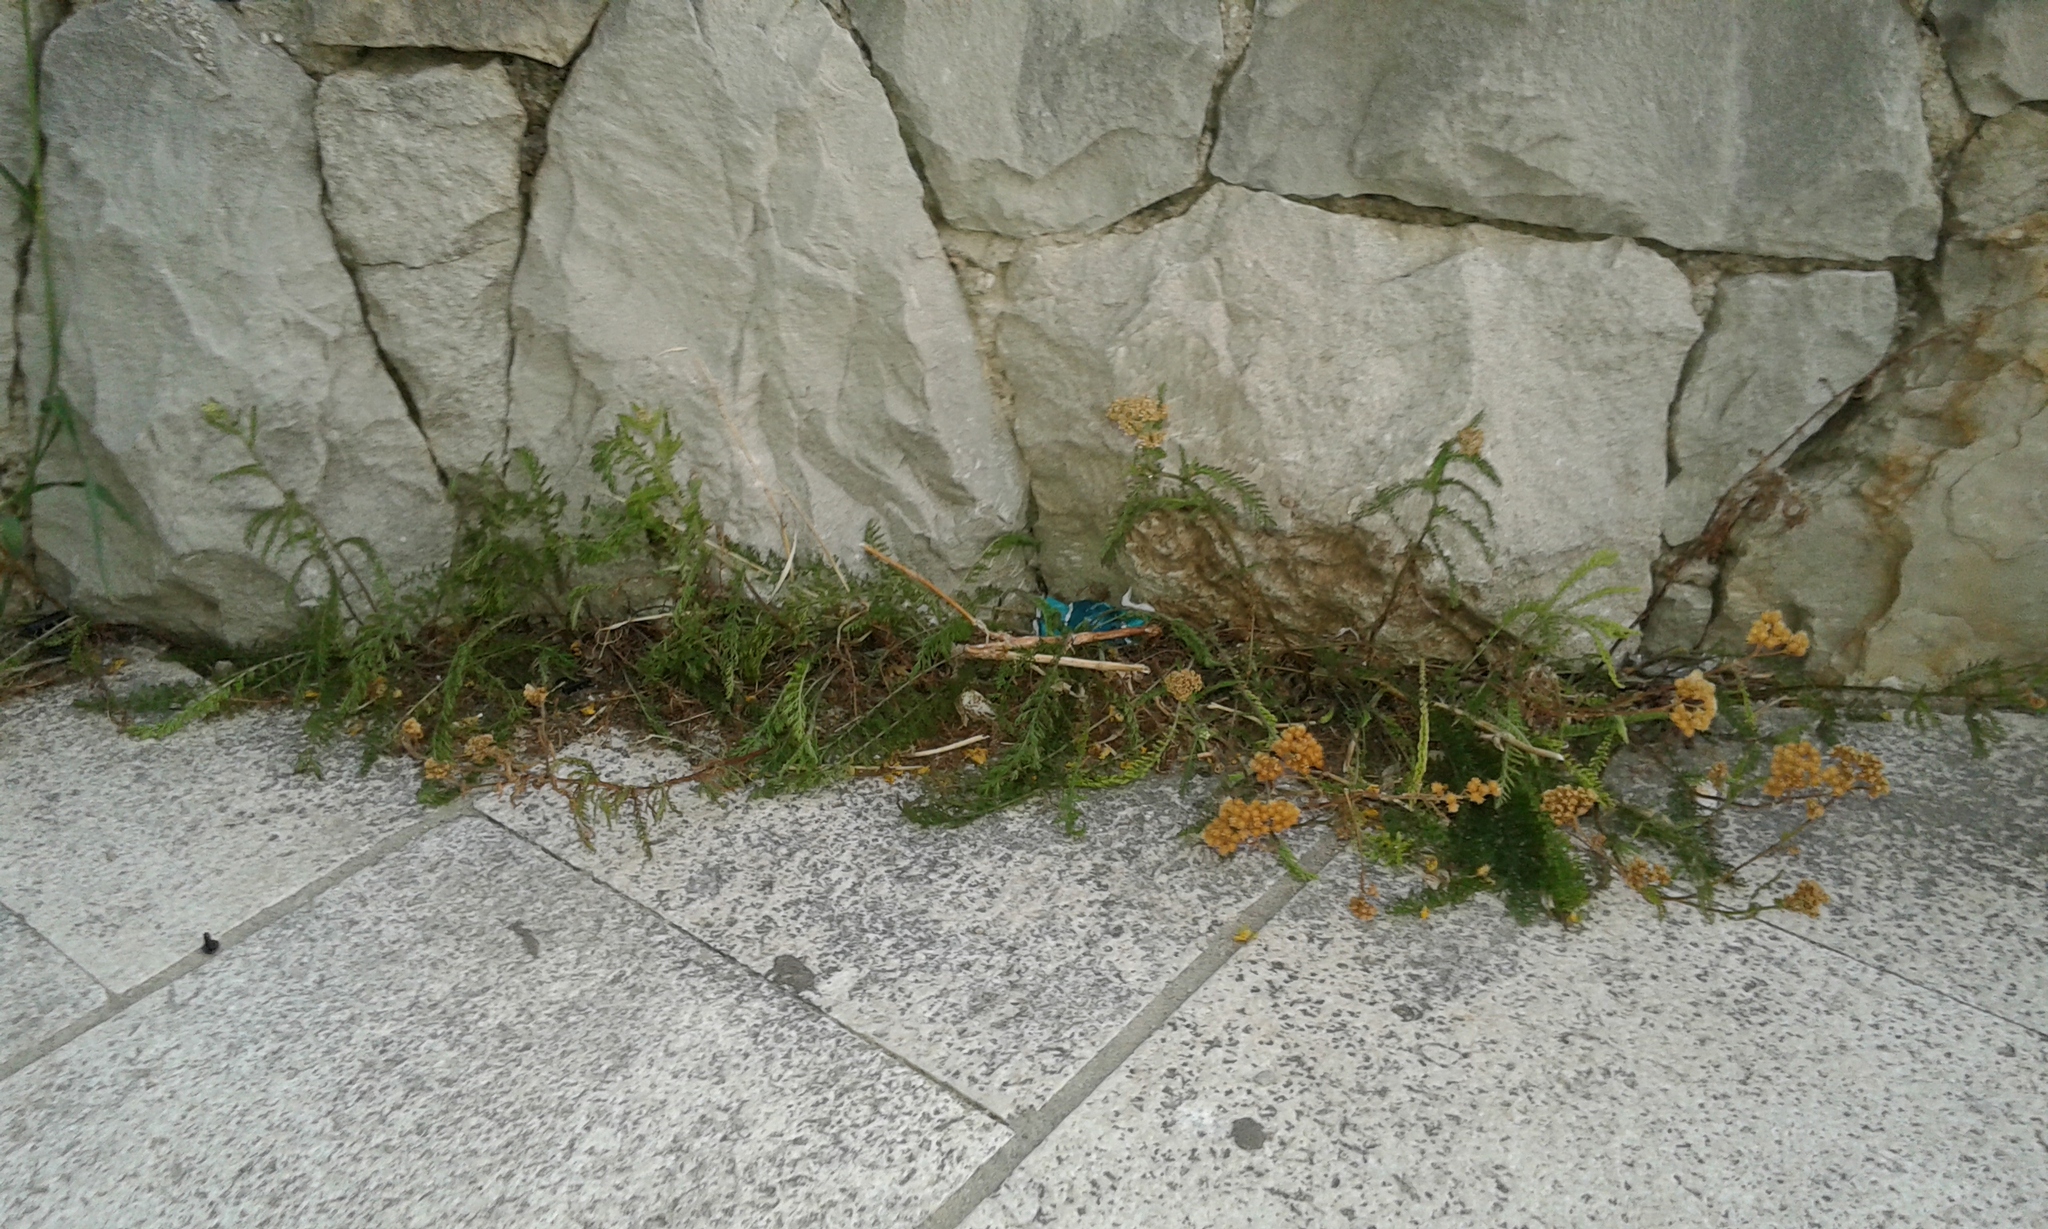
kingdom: Plantae
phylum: Tracheophyta
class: Magnoliopsida
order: Asterales
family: Asteraceae
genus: Tanacetum
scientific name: Tanacetum vulgare
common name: Common tansy
